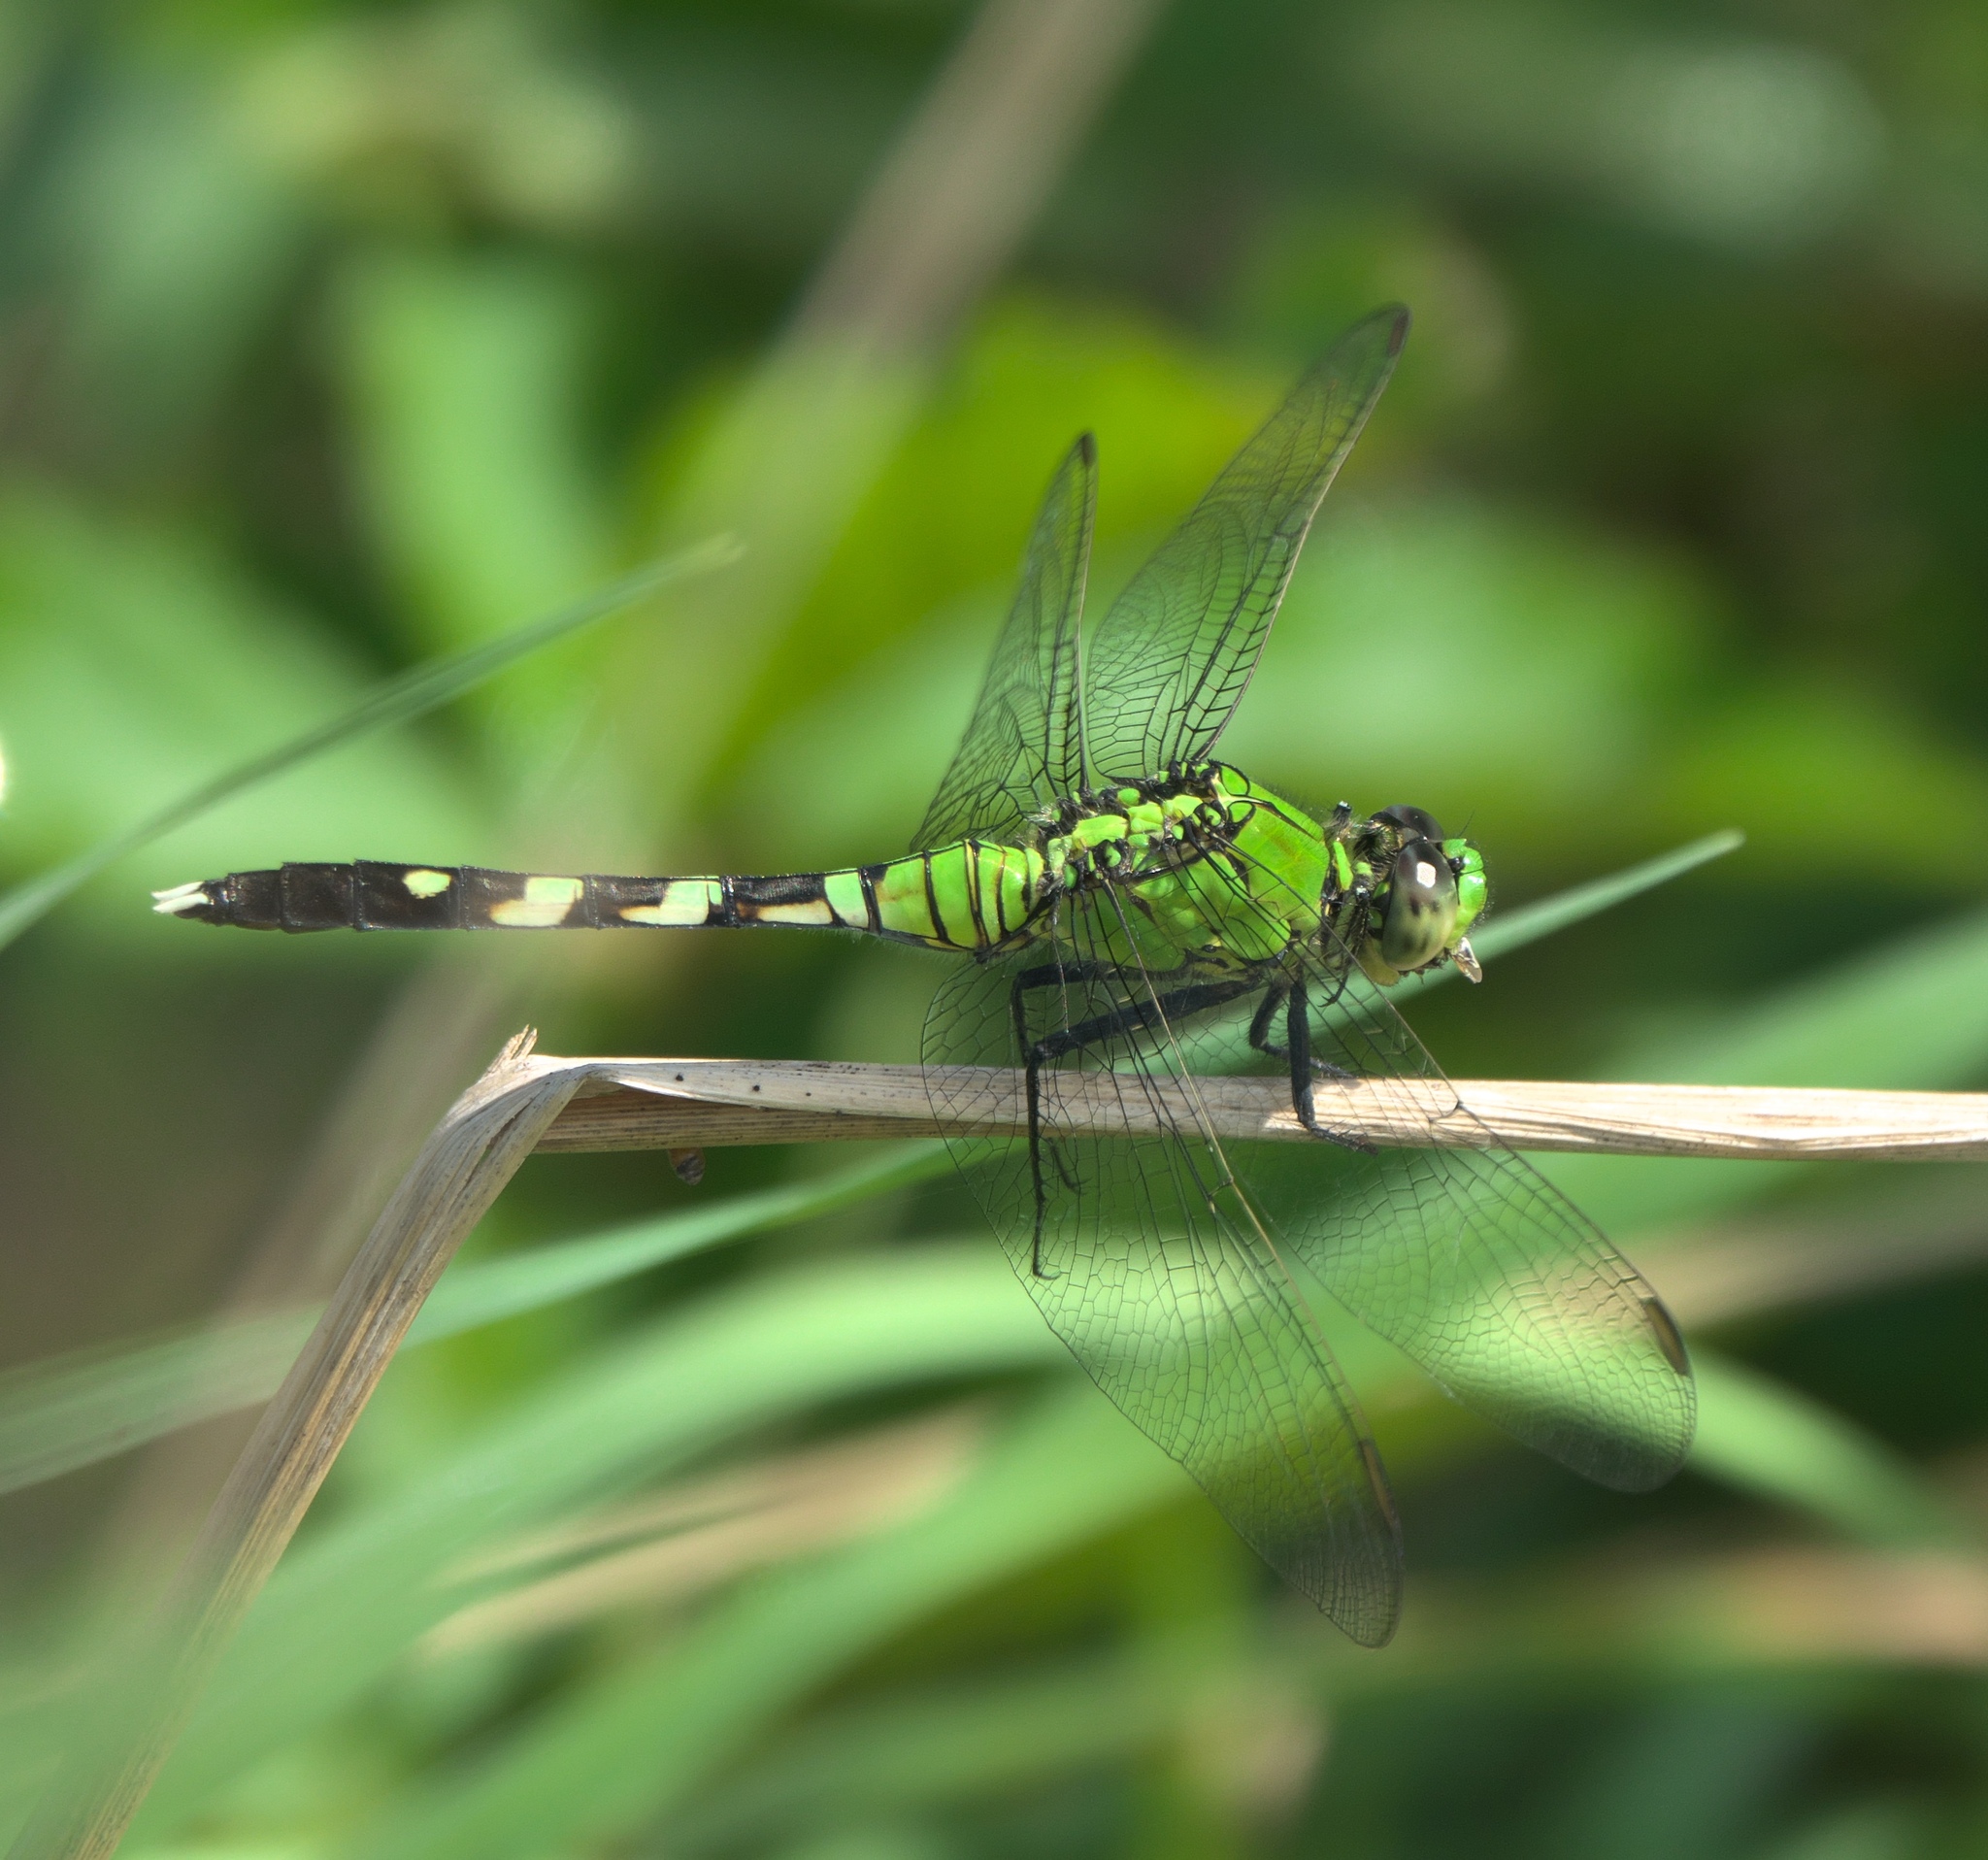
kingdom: Animalia
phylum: Arthropoda
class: Insecta
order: Odonata
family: Libellulidae
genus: Erythemis
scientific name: Erythemis simplicicollis
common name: Eastern pondhawk
